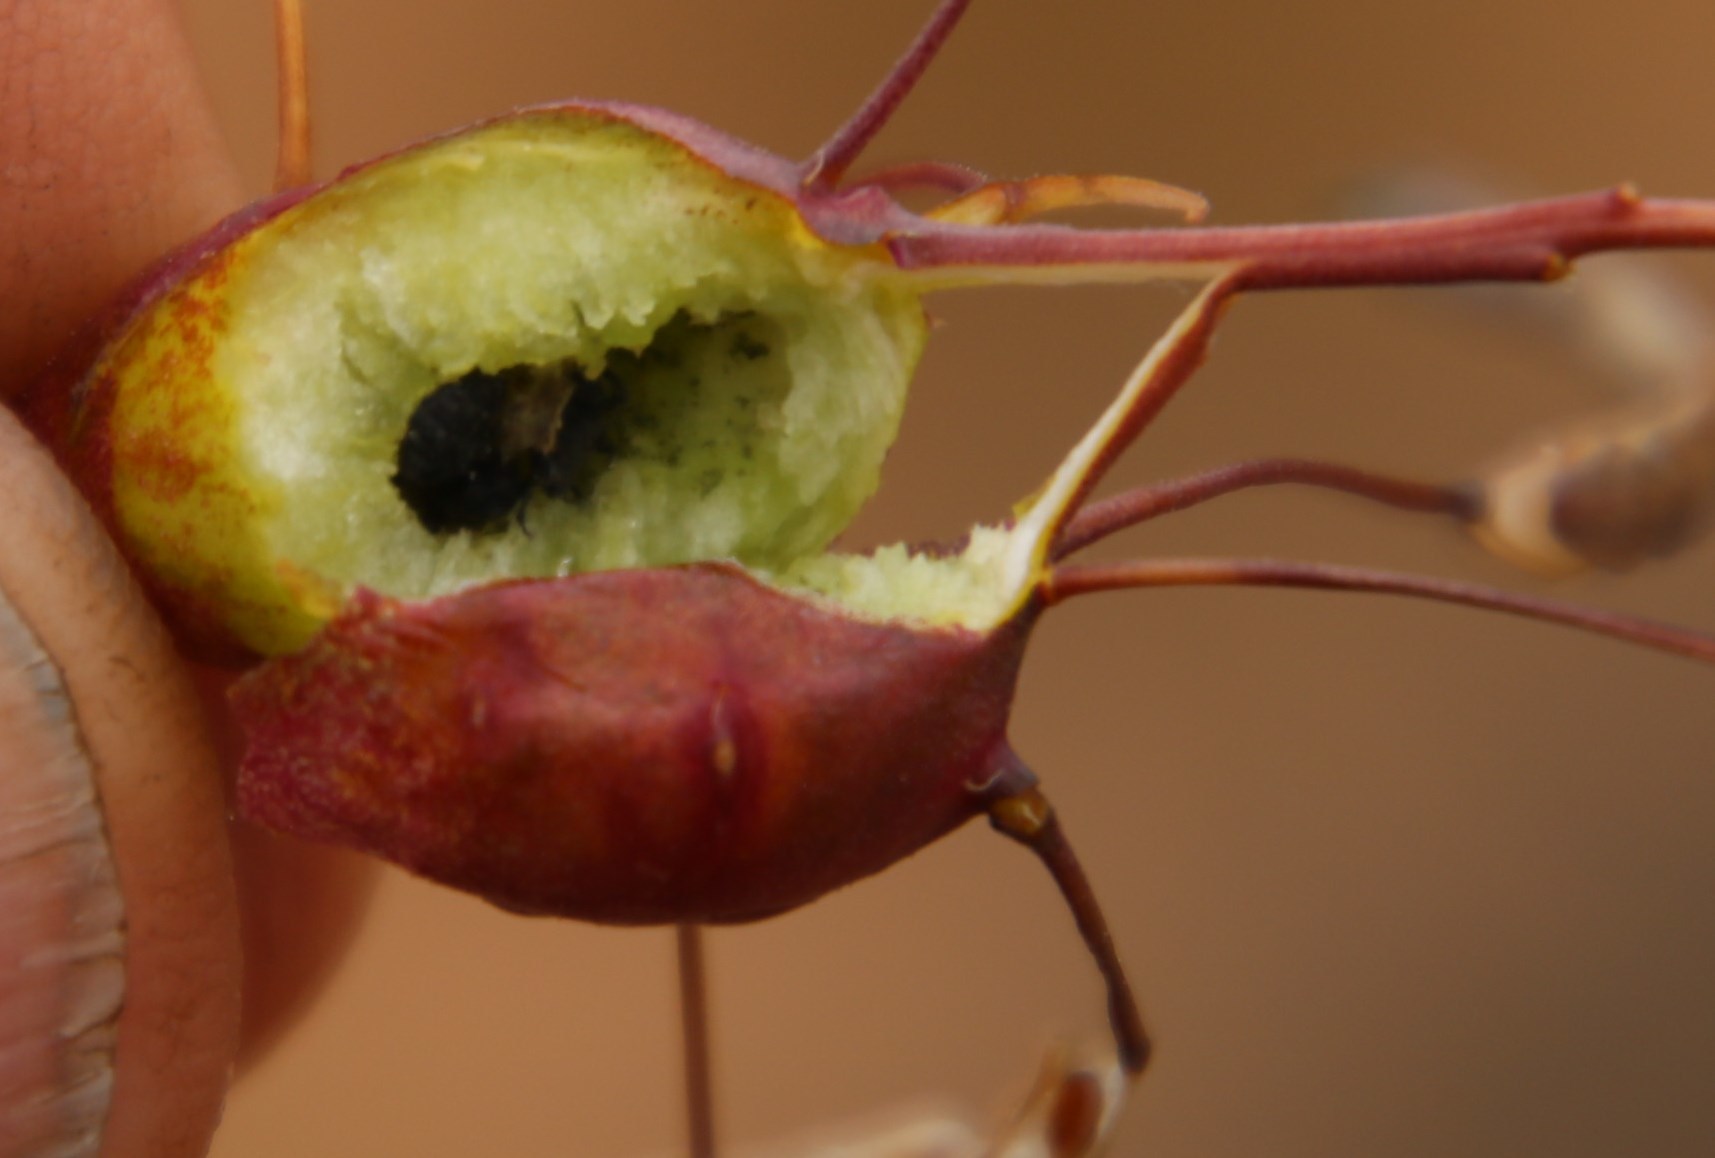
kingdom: Plantae
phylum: Tracheophyta
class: Magnoliopsida
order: Brassicales
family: Brassicaceae
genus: Heliophila
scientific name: Heliophila variabilis
